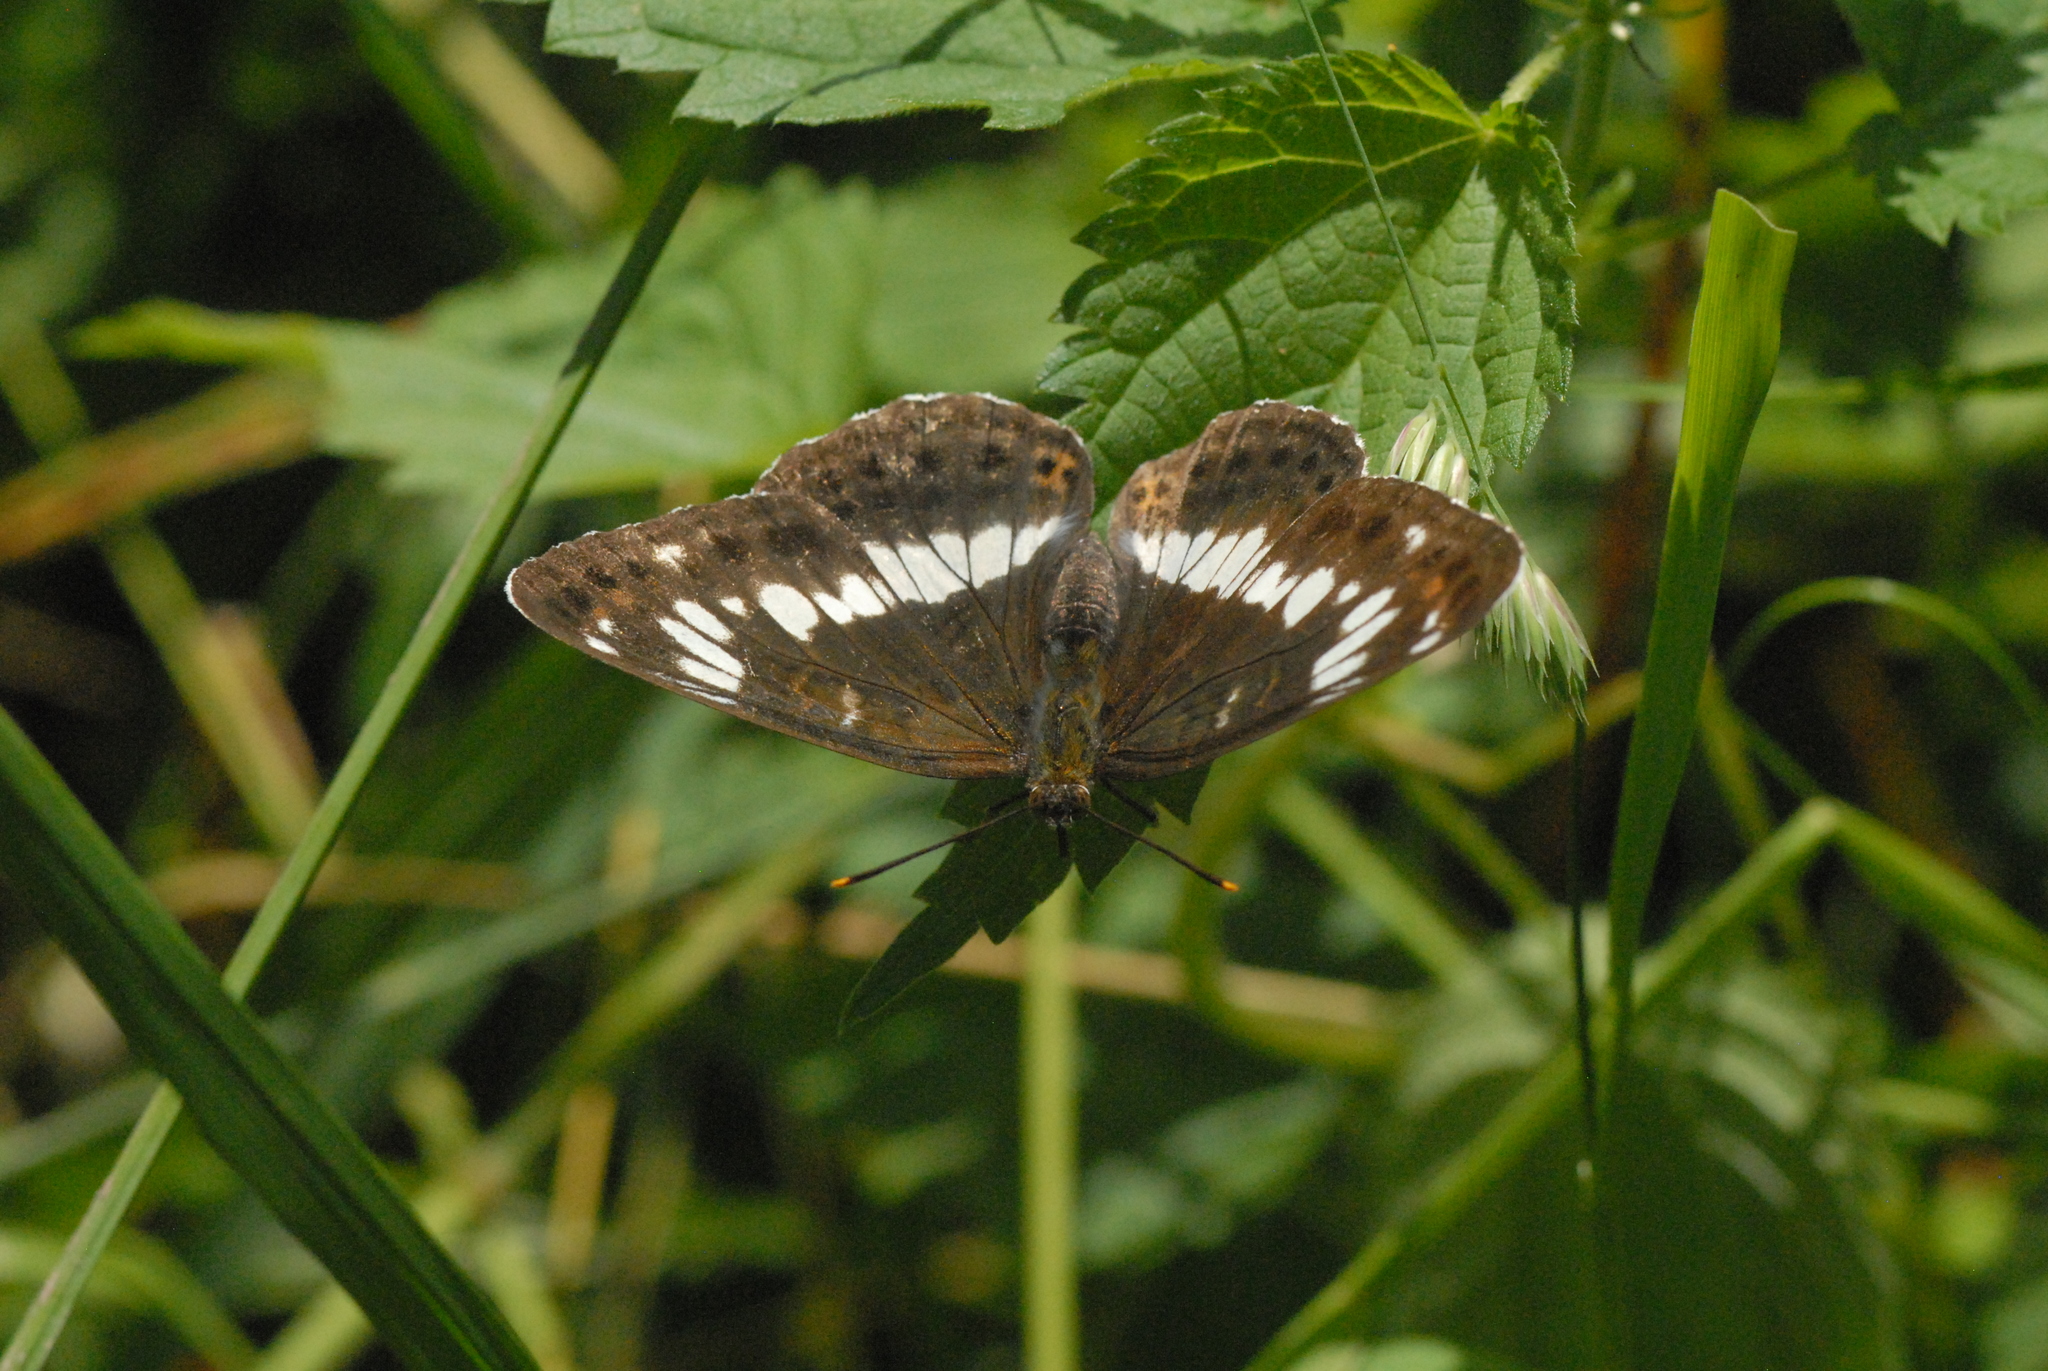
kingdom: Animalia
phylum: Arthropoda
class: Insecta
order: Lepidoptera
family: Nymphalidae
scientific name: Nymphalidae
